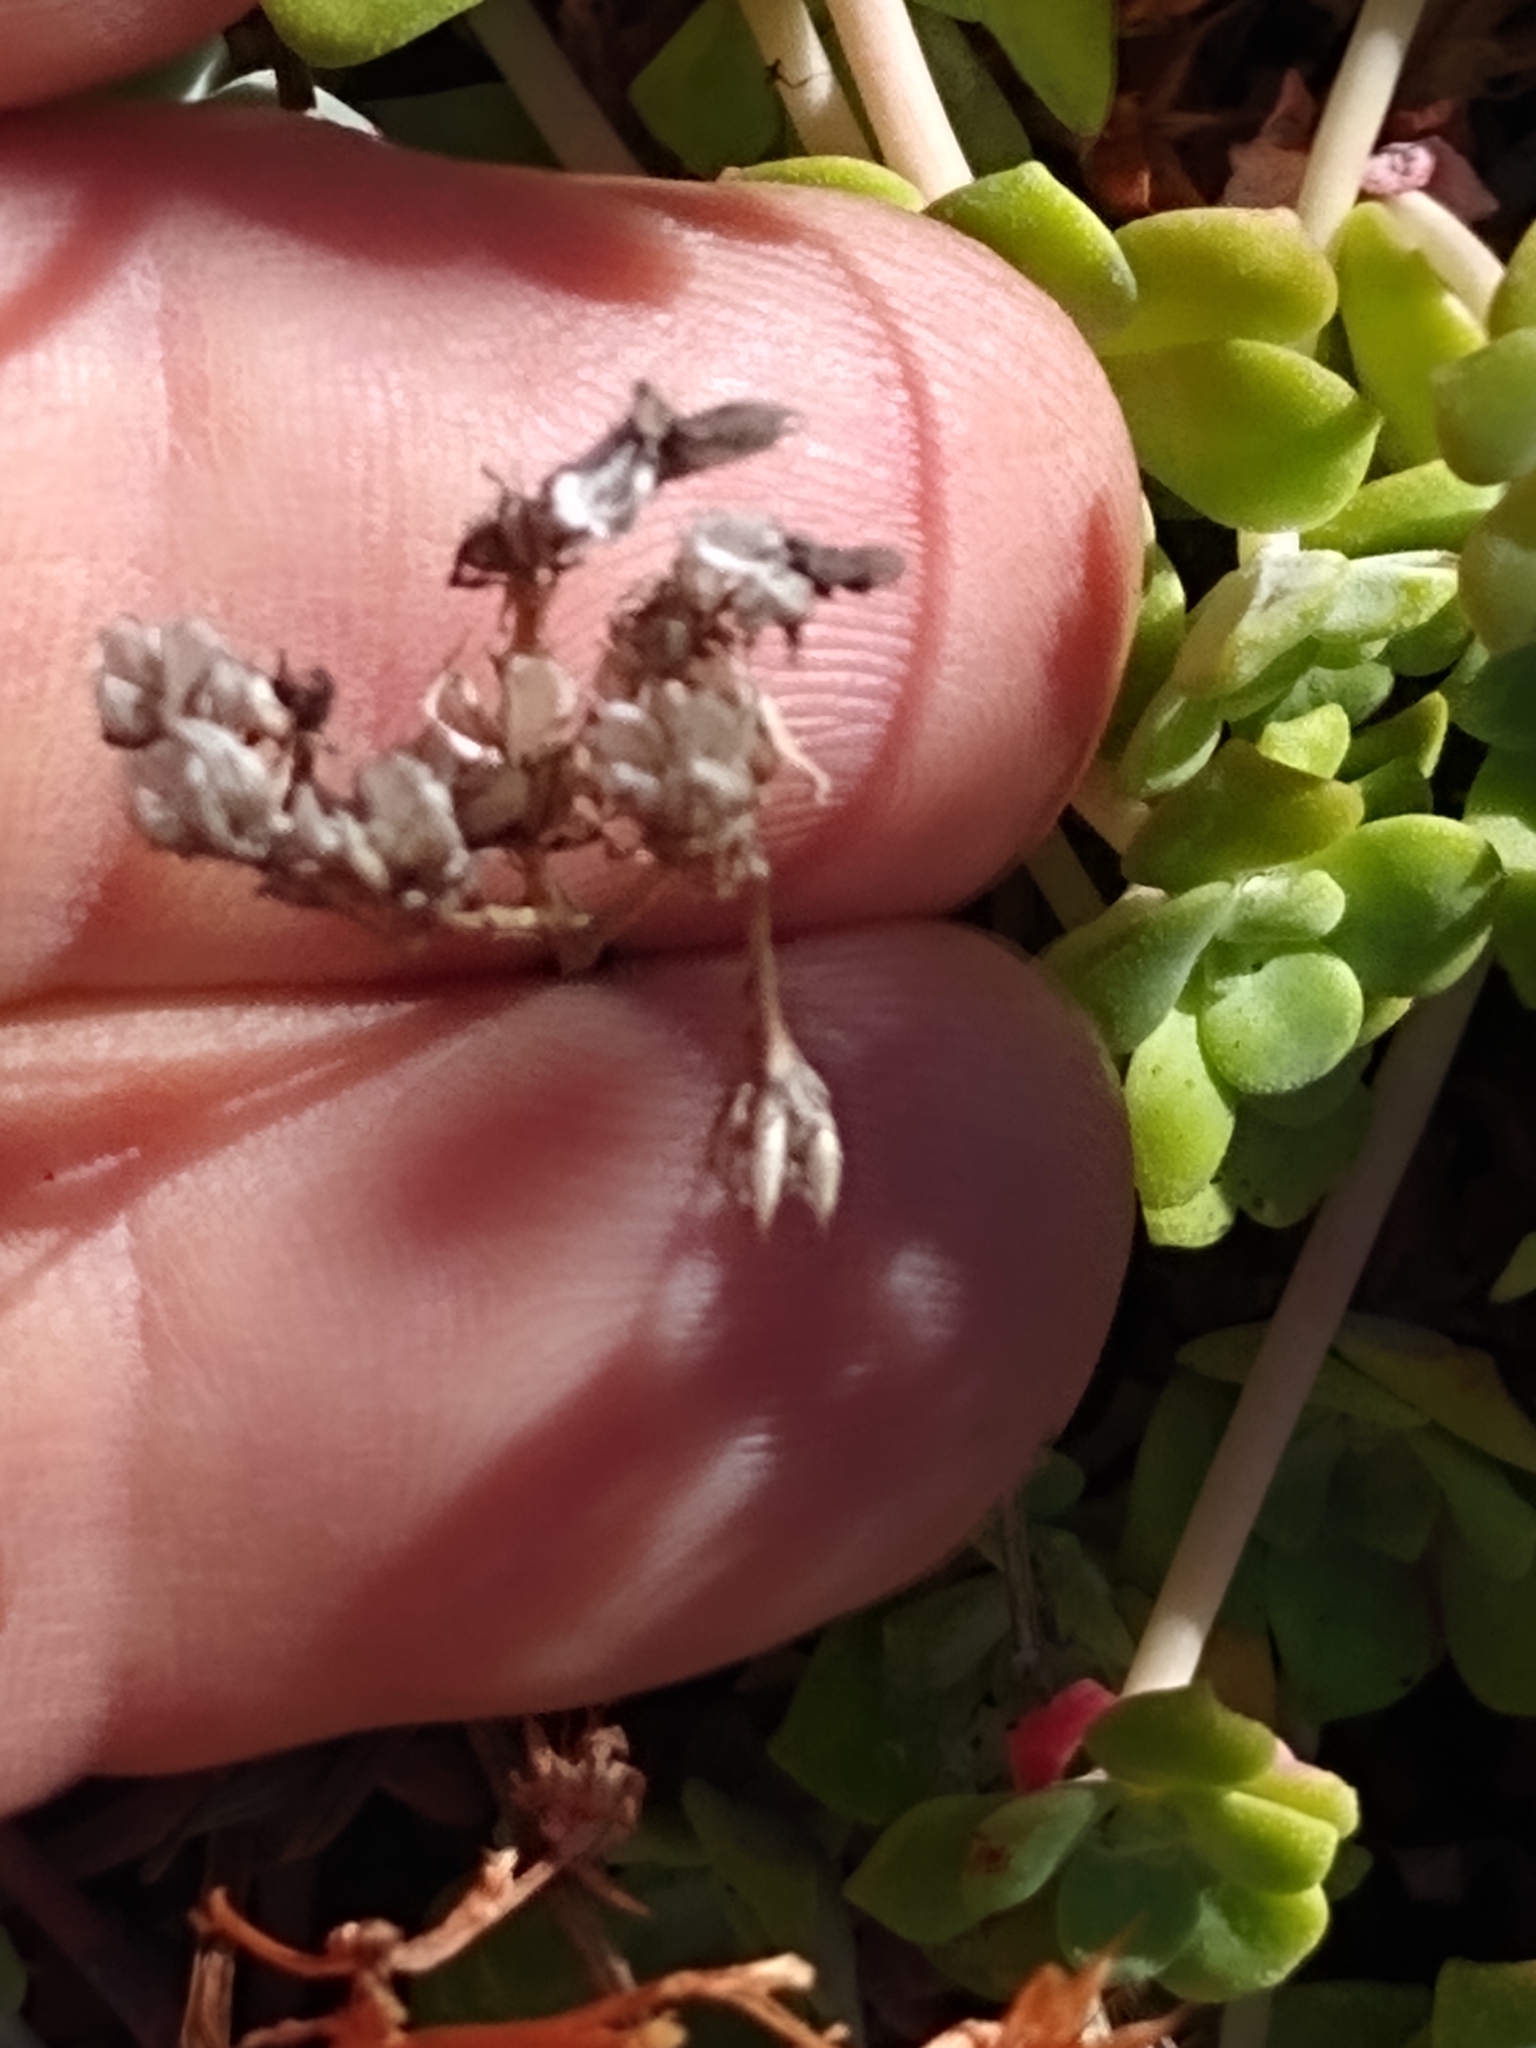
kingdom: Plantae
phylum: Tracheophyta
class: Magnoliopsida
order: Saxifragales
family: Crassulaceae
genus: Sedum
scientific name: Sedum spathulifolium
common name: Colorado stonecrop
